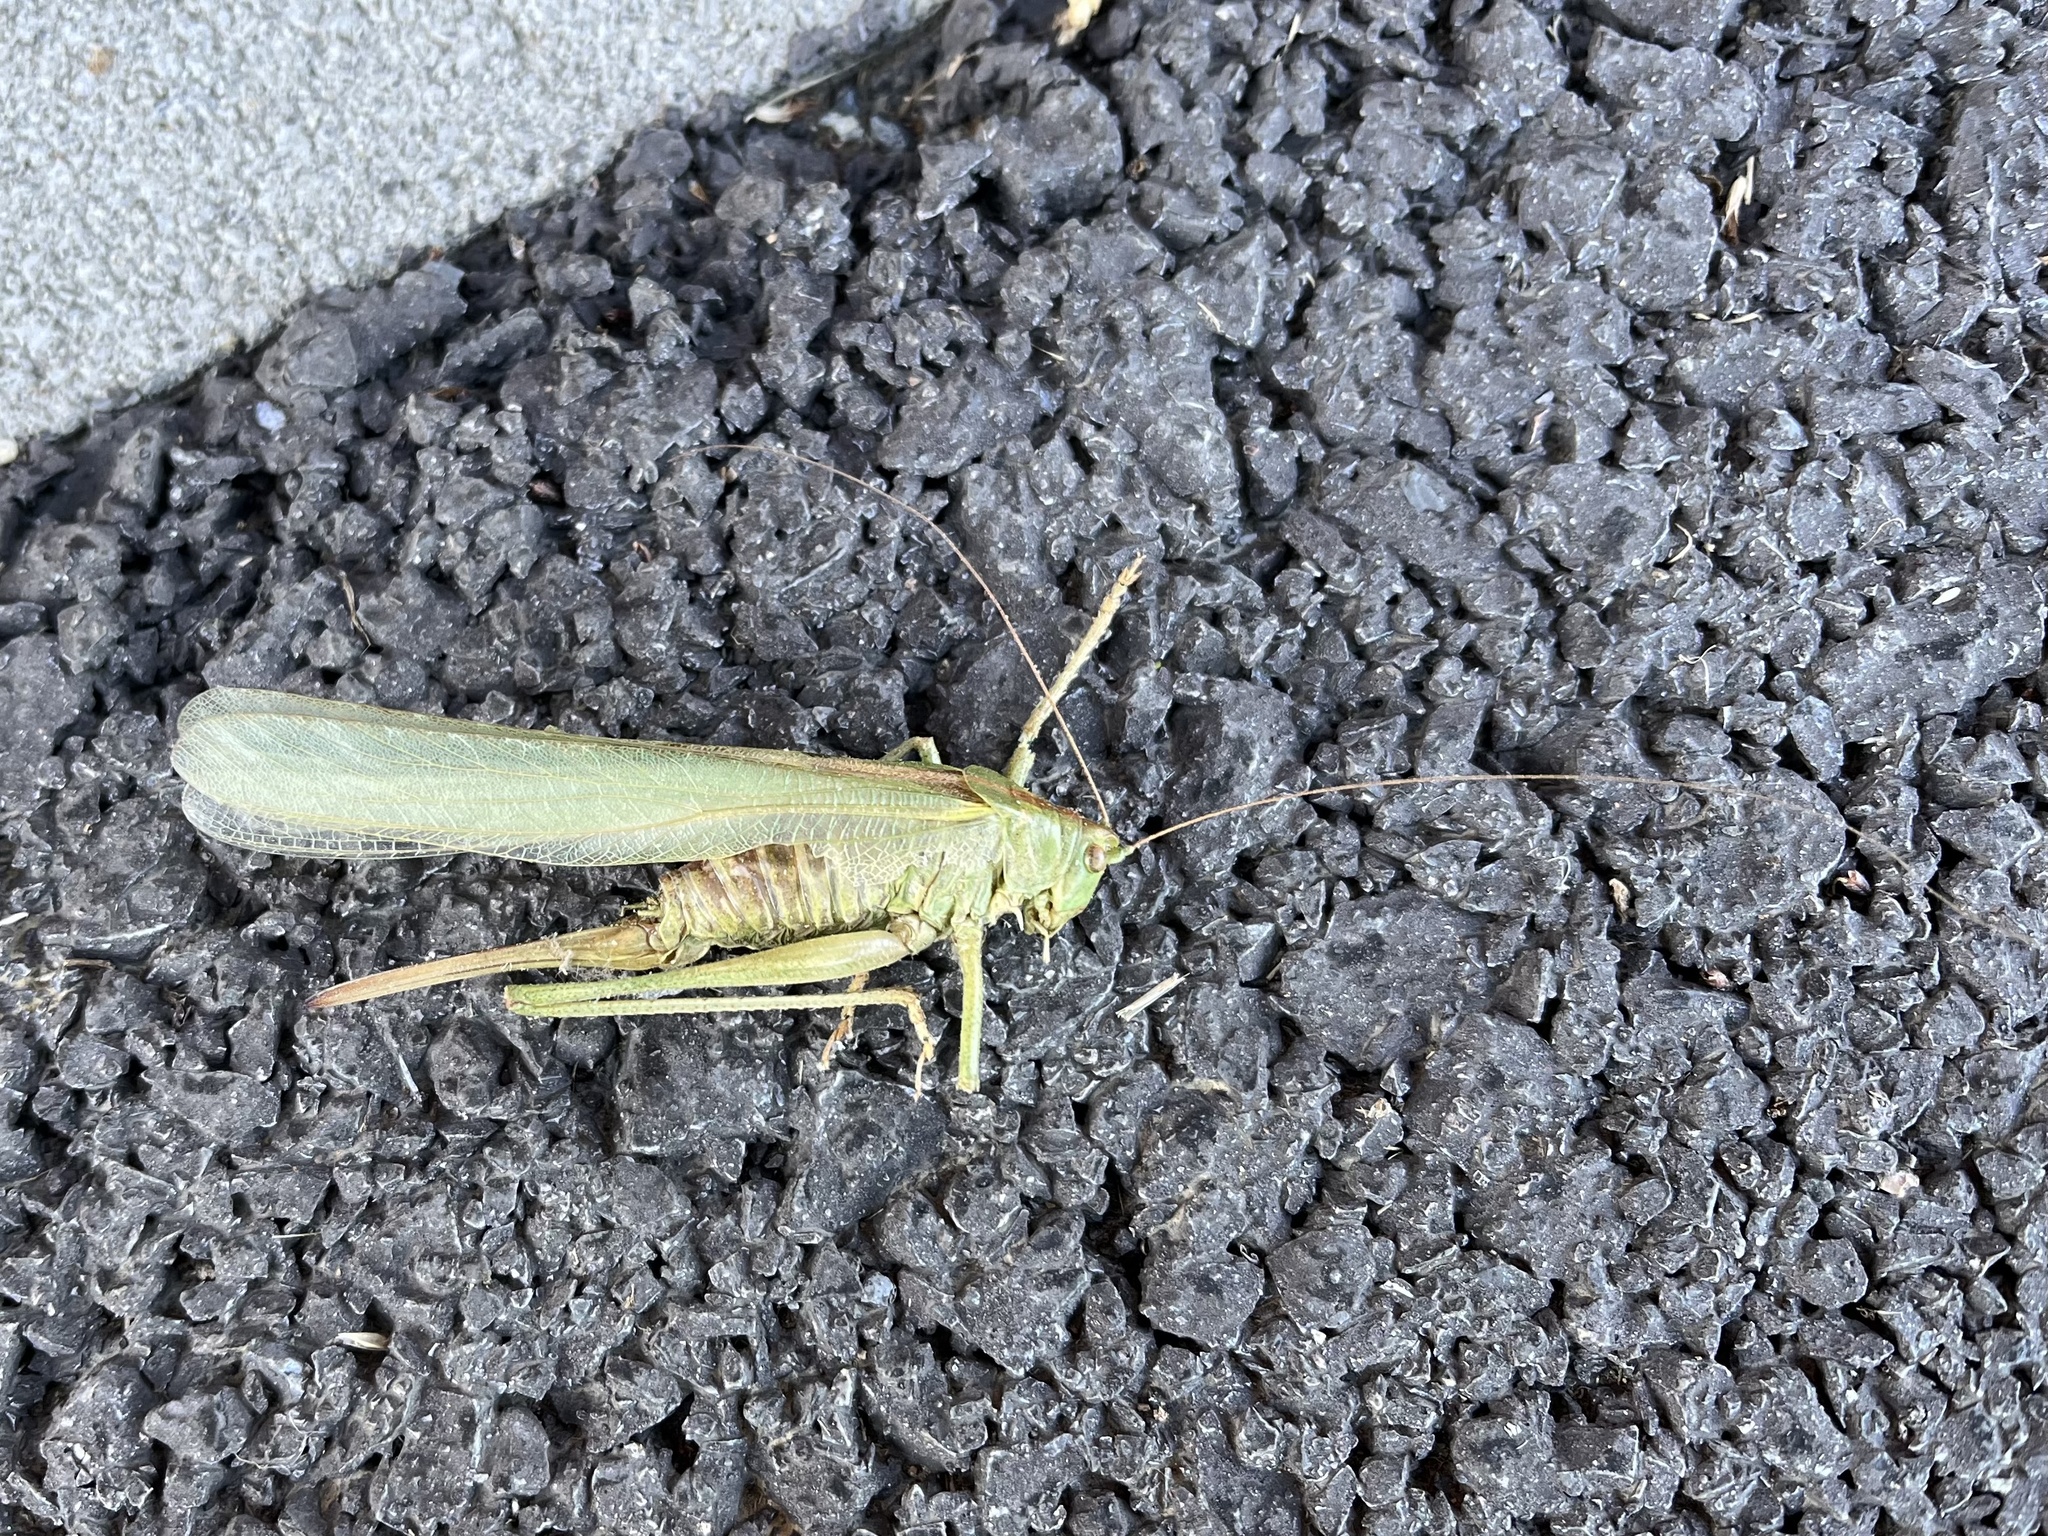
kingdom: Animalia
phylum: Arthropoda
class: Insecta
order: Orthoptera
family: Tettigoniidae
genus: Tettigonia
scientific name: Tettigonia viridissima
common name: Great green bush-cricket
